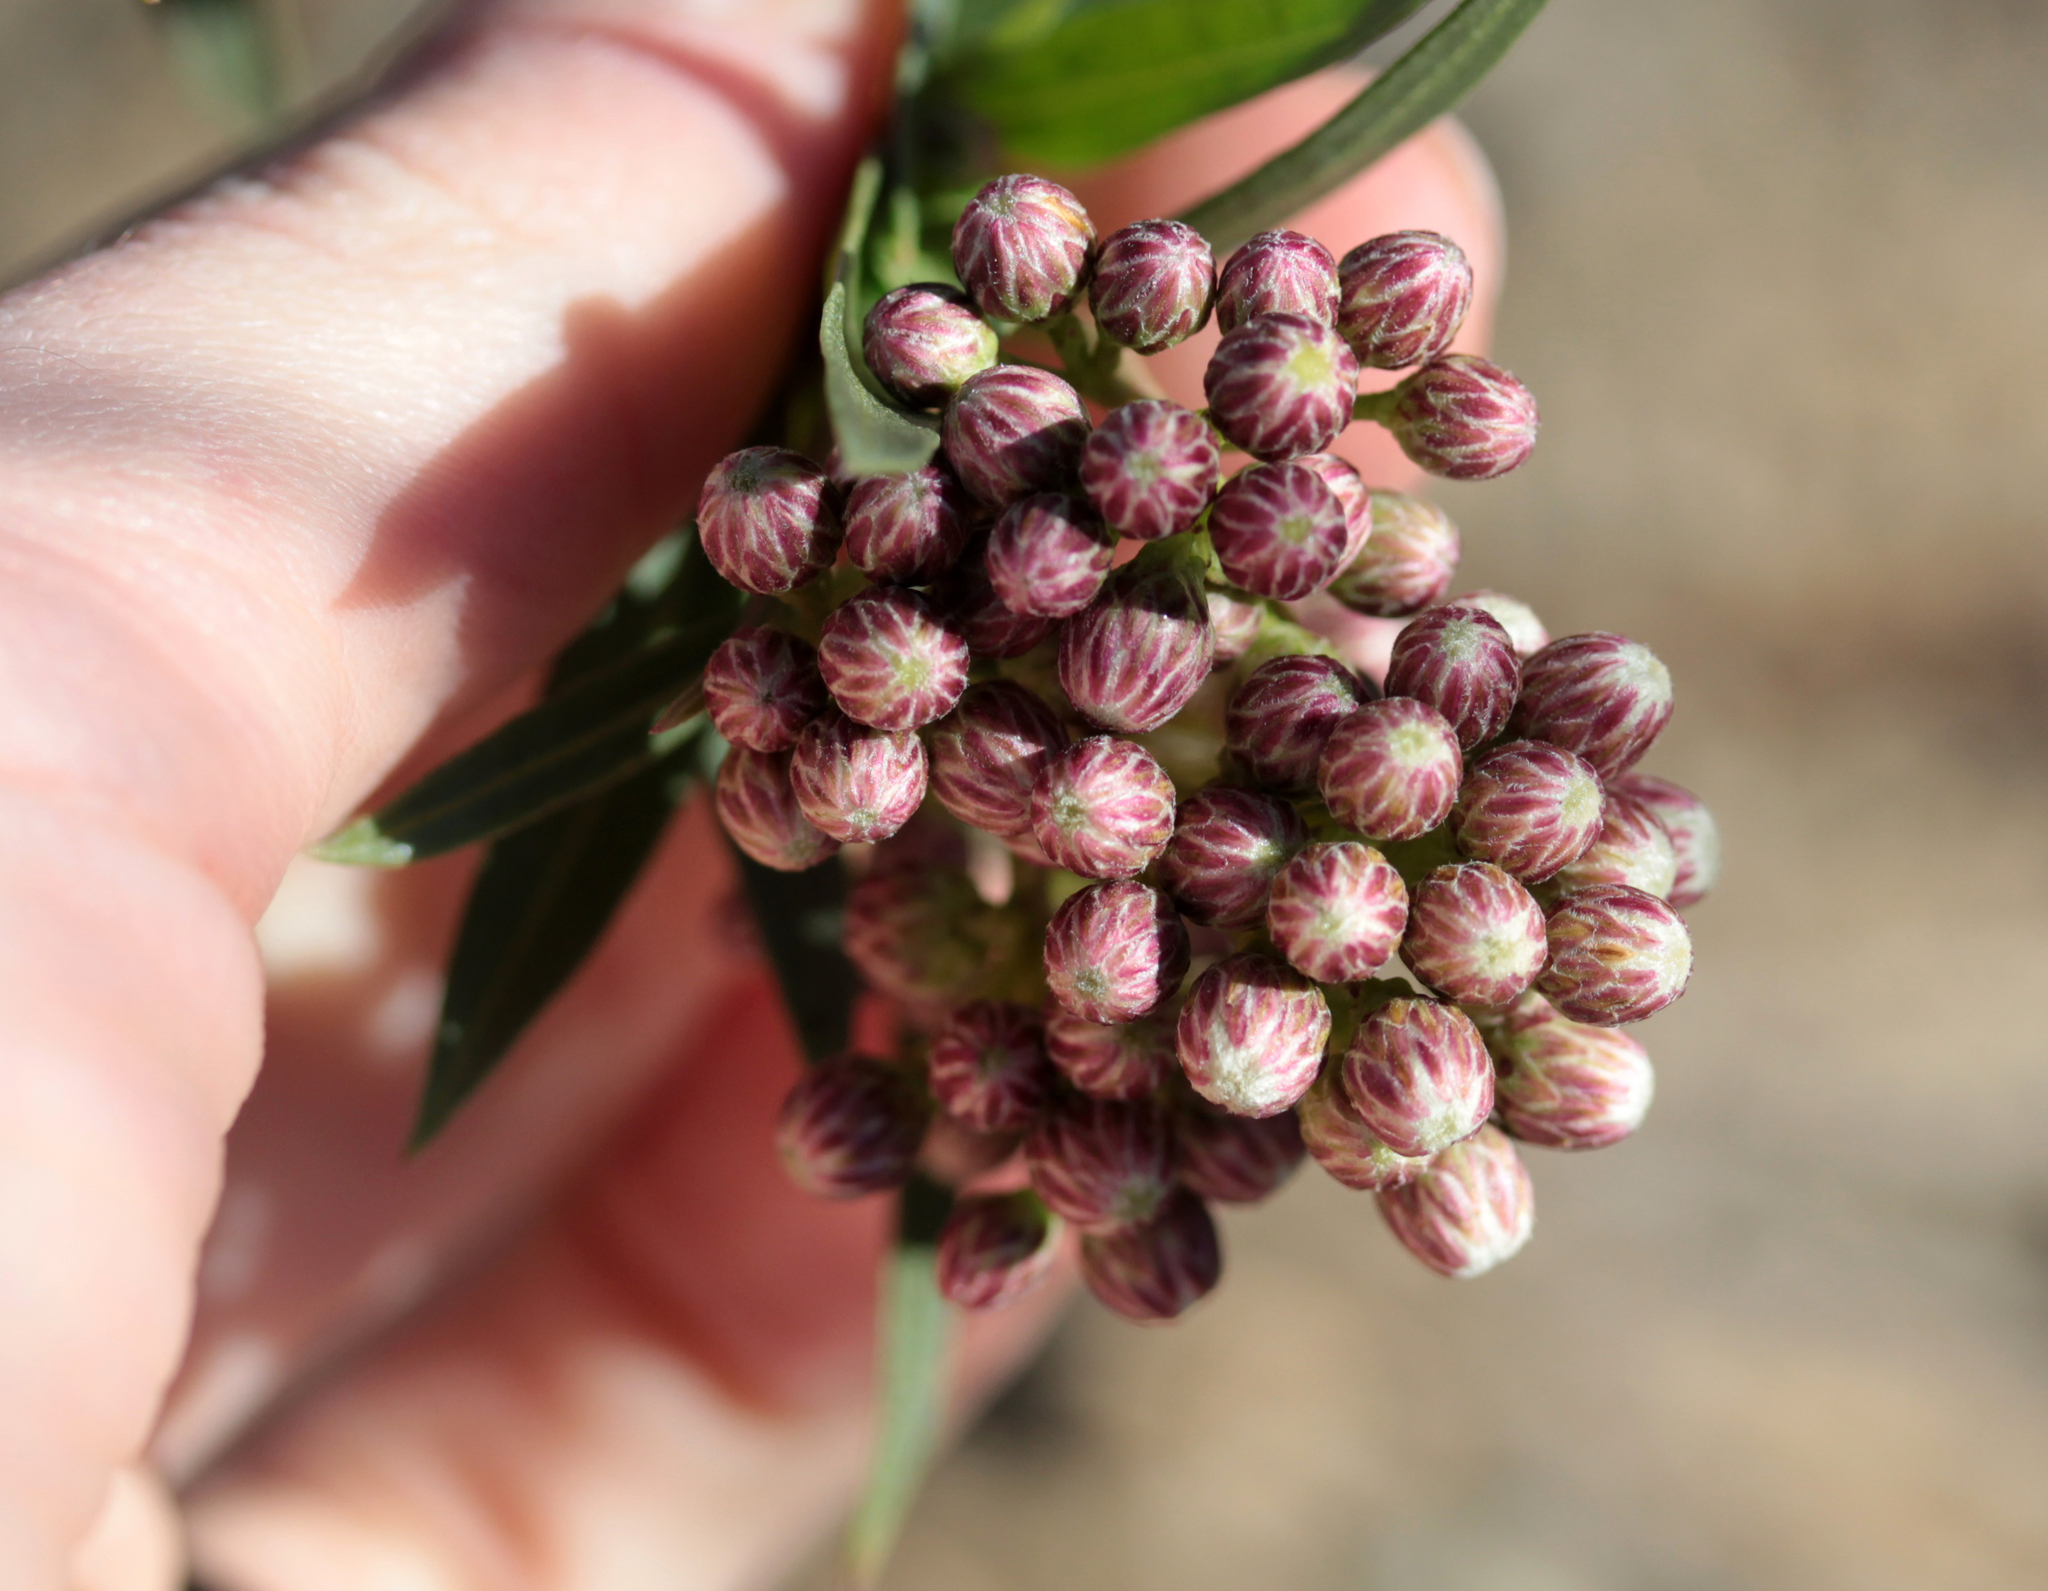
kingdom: Plantae
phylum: Tracheophyta
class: Magnoliopsida
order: Asterales
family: Asteraceae
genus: Baccharis
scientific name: Baccharis salicifolia
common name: Sticky baccharis
